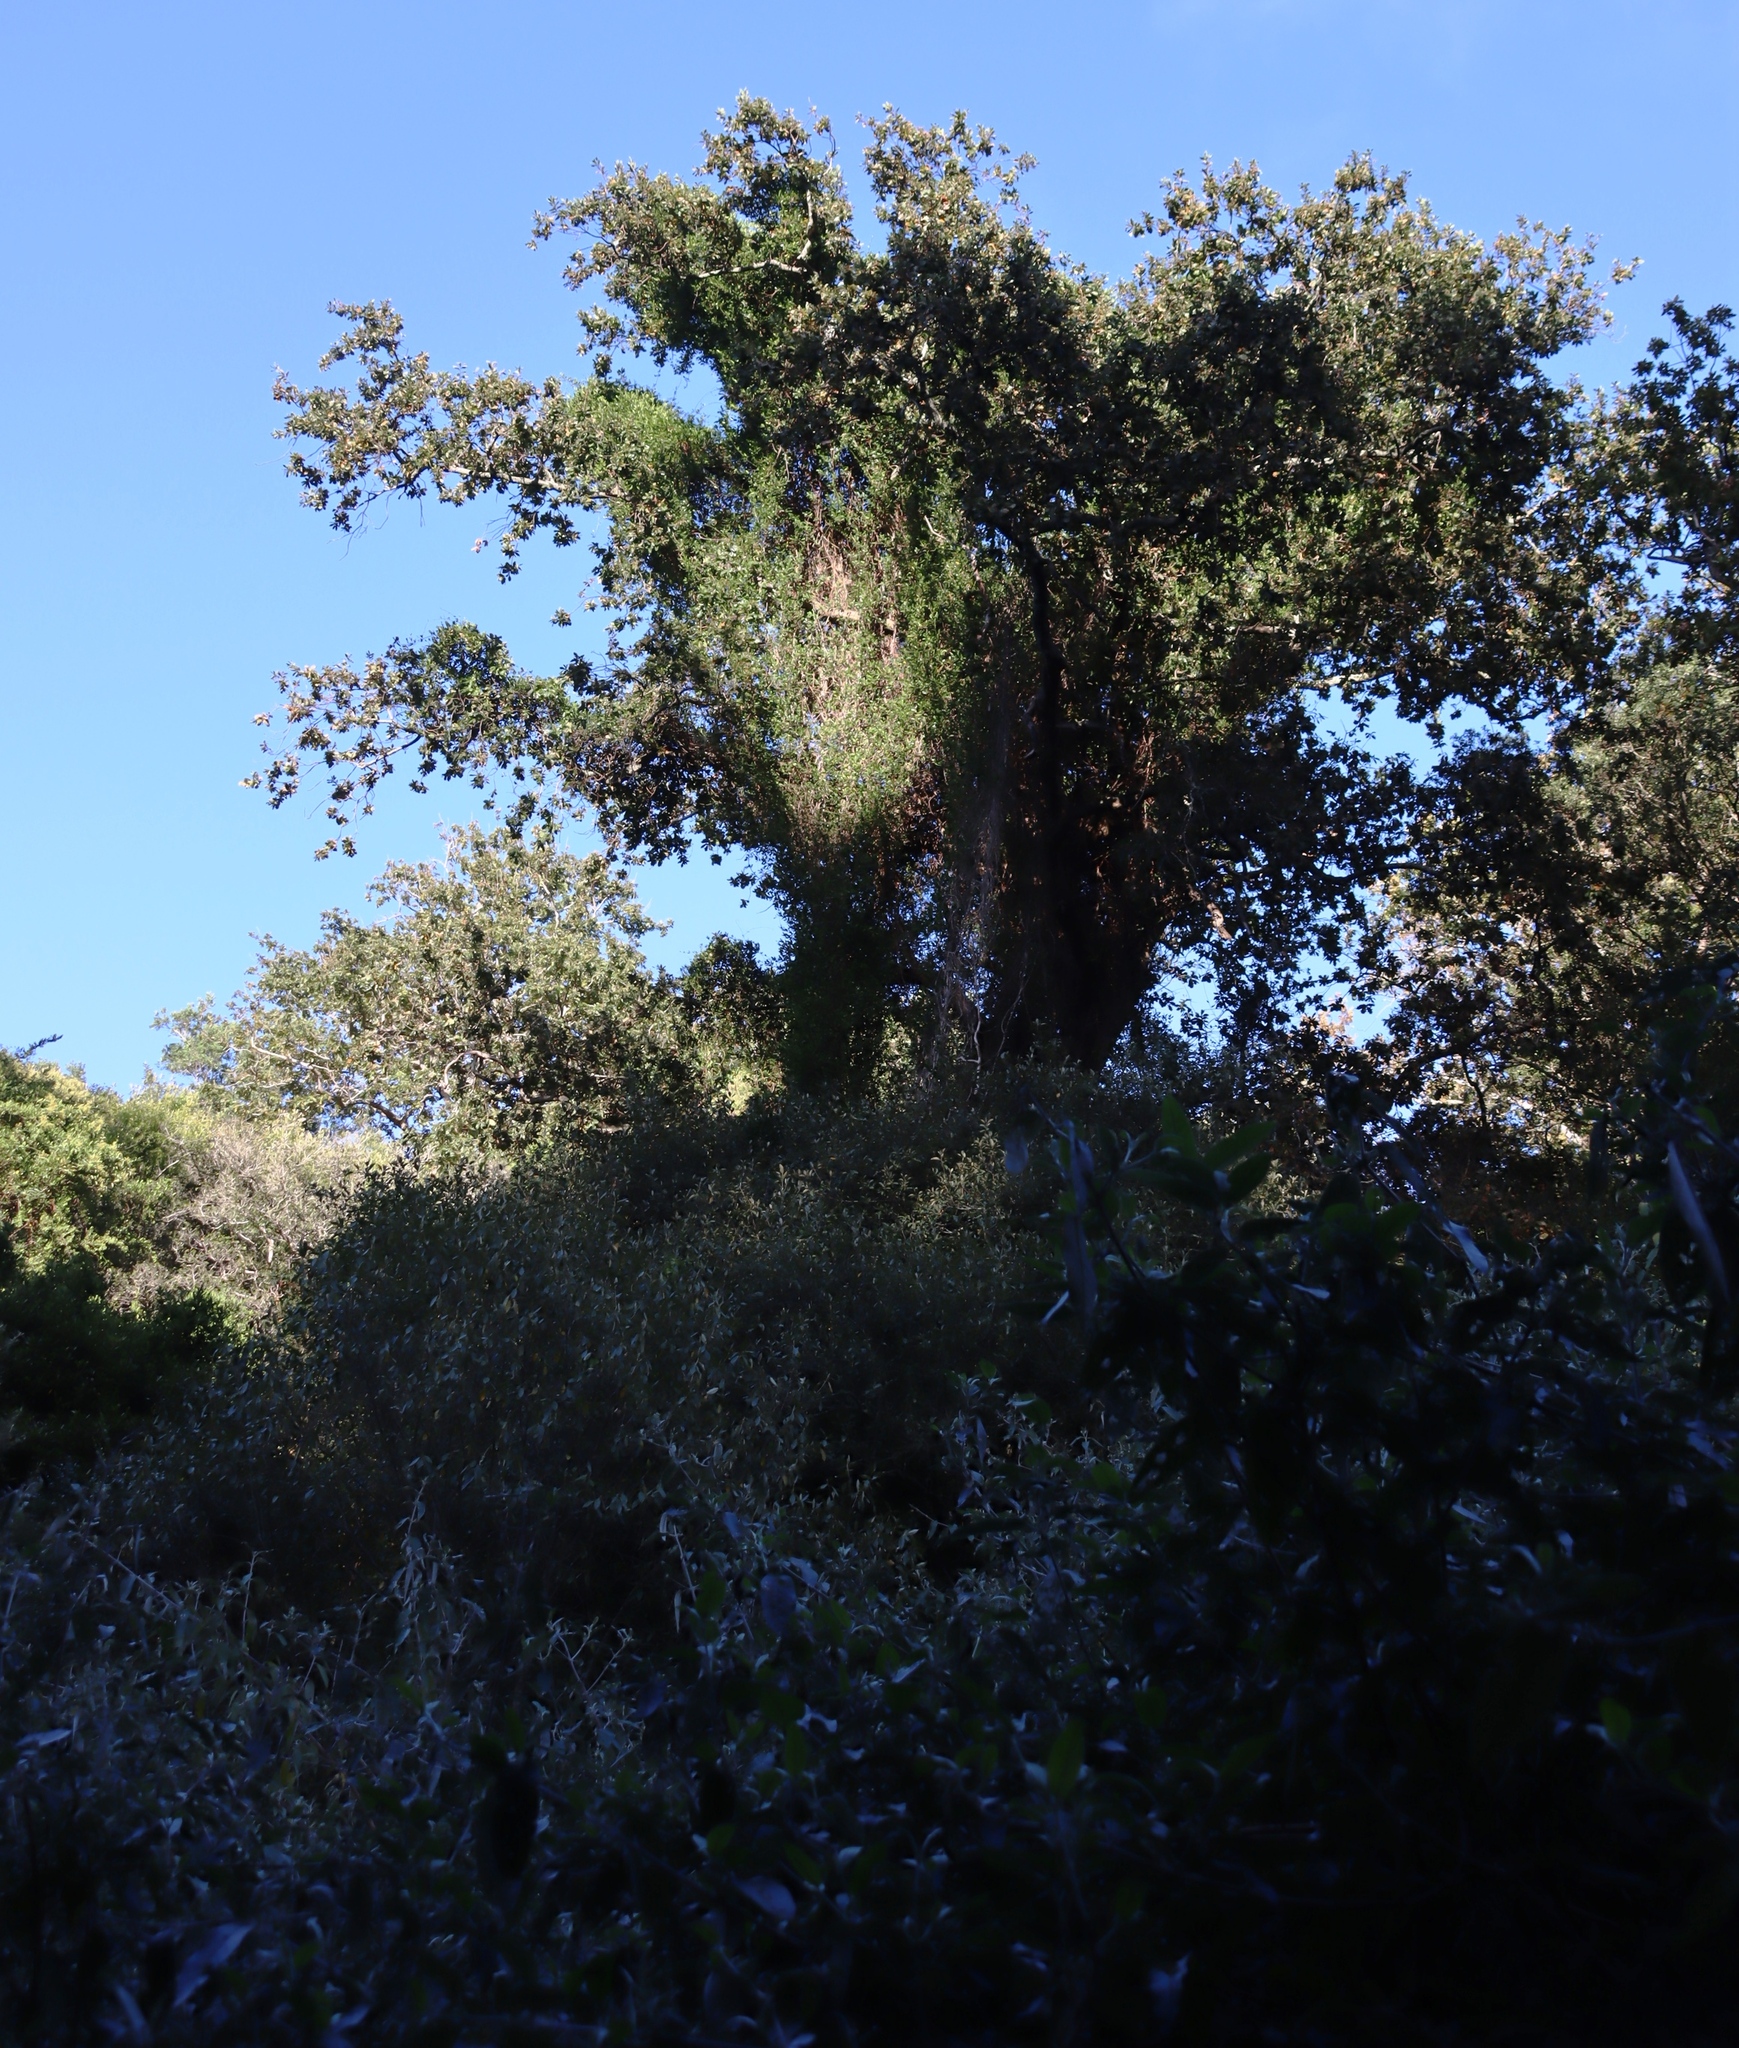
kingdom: Plantae
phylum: Tracheophyta
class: Magnoliopsida
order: Solanales
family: Convolvulaceae
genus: Ipomoea
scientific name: Ipomoea indica
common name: Blue dawnflower
